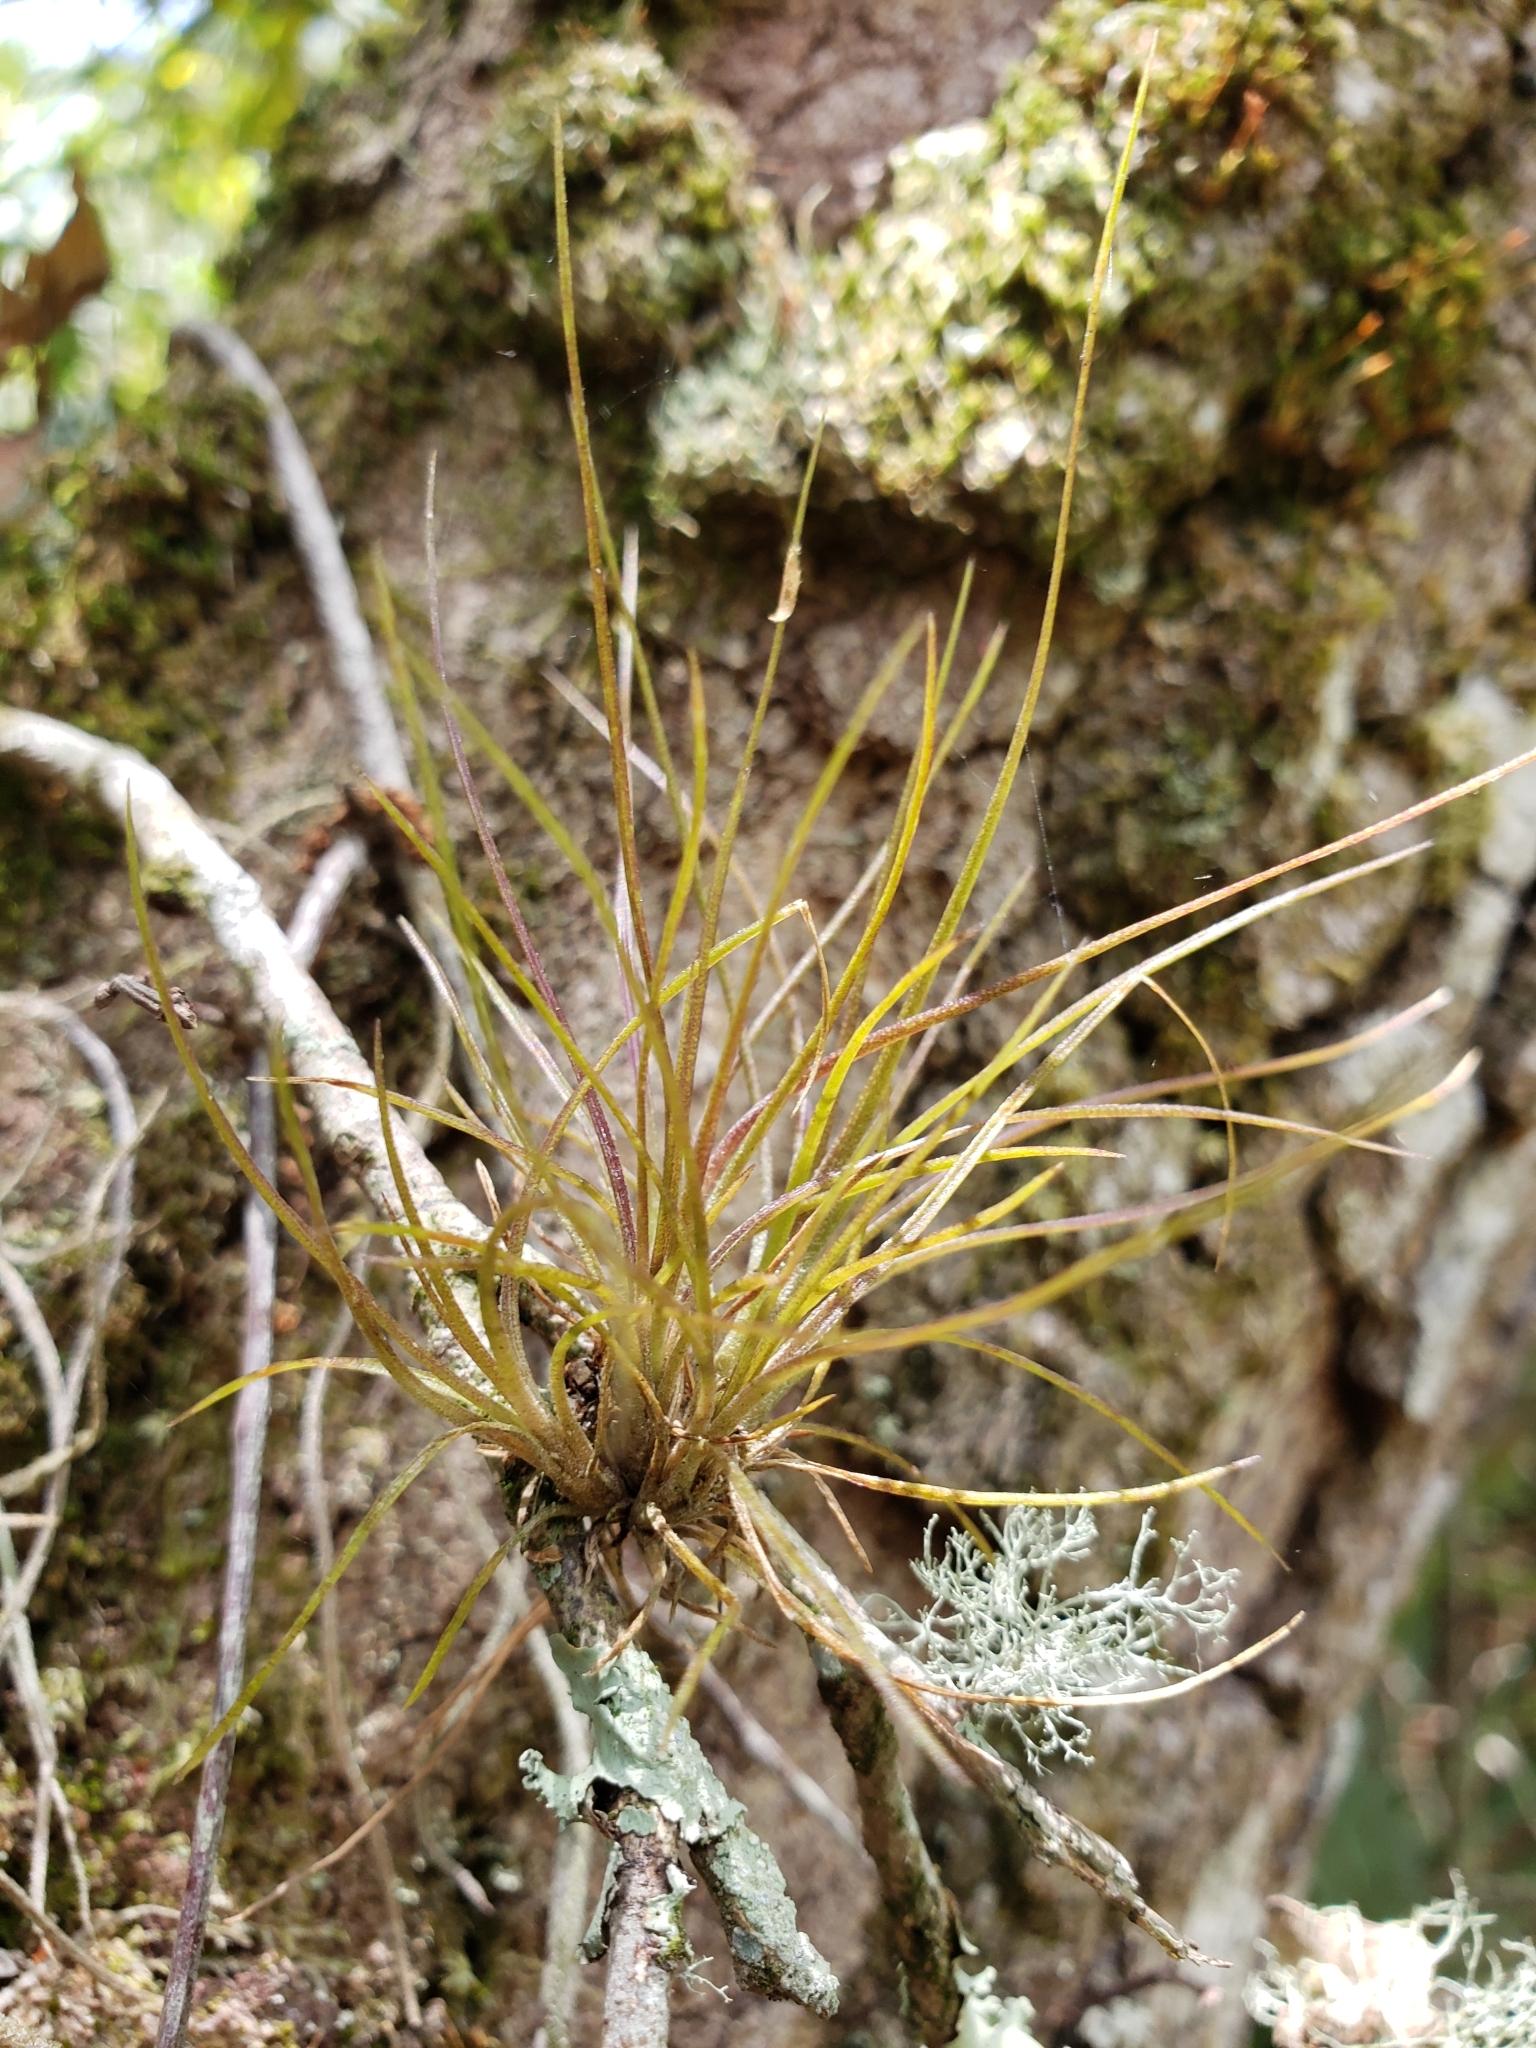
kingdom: Plantae
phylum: Tracheophyta
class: Liliopsida
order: Poales
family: Bromeliaceae
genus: Tillandsia
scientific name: Tillandsia setacea
